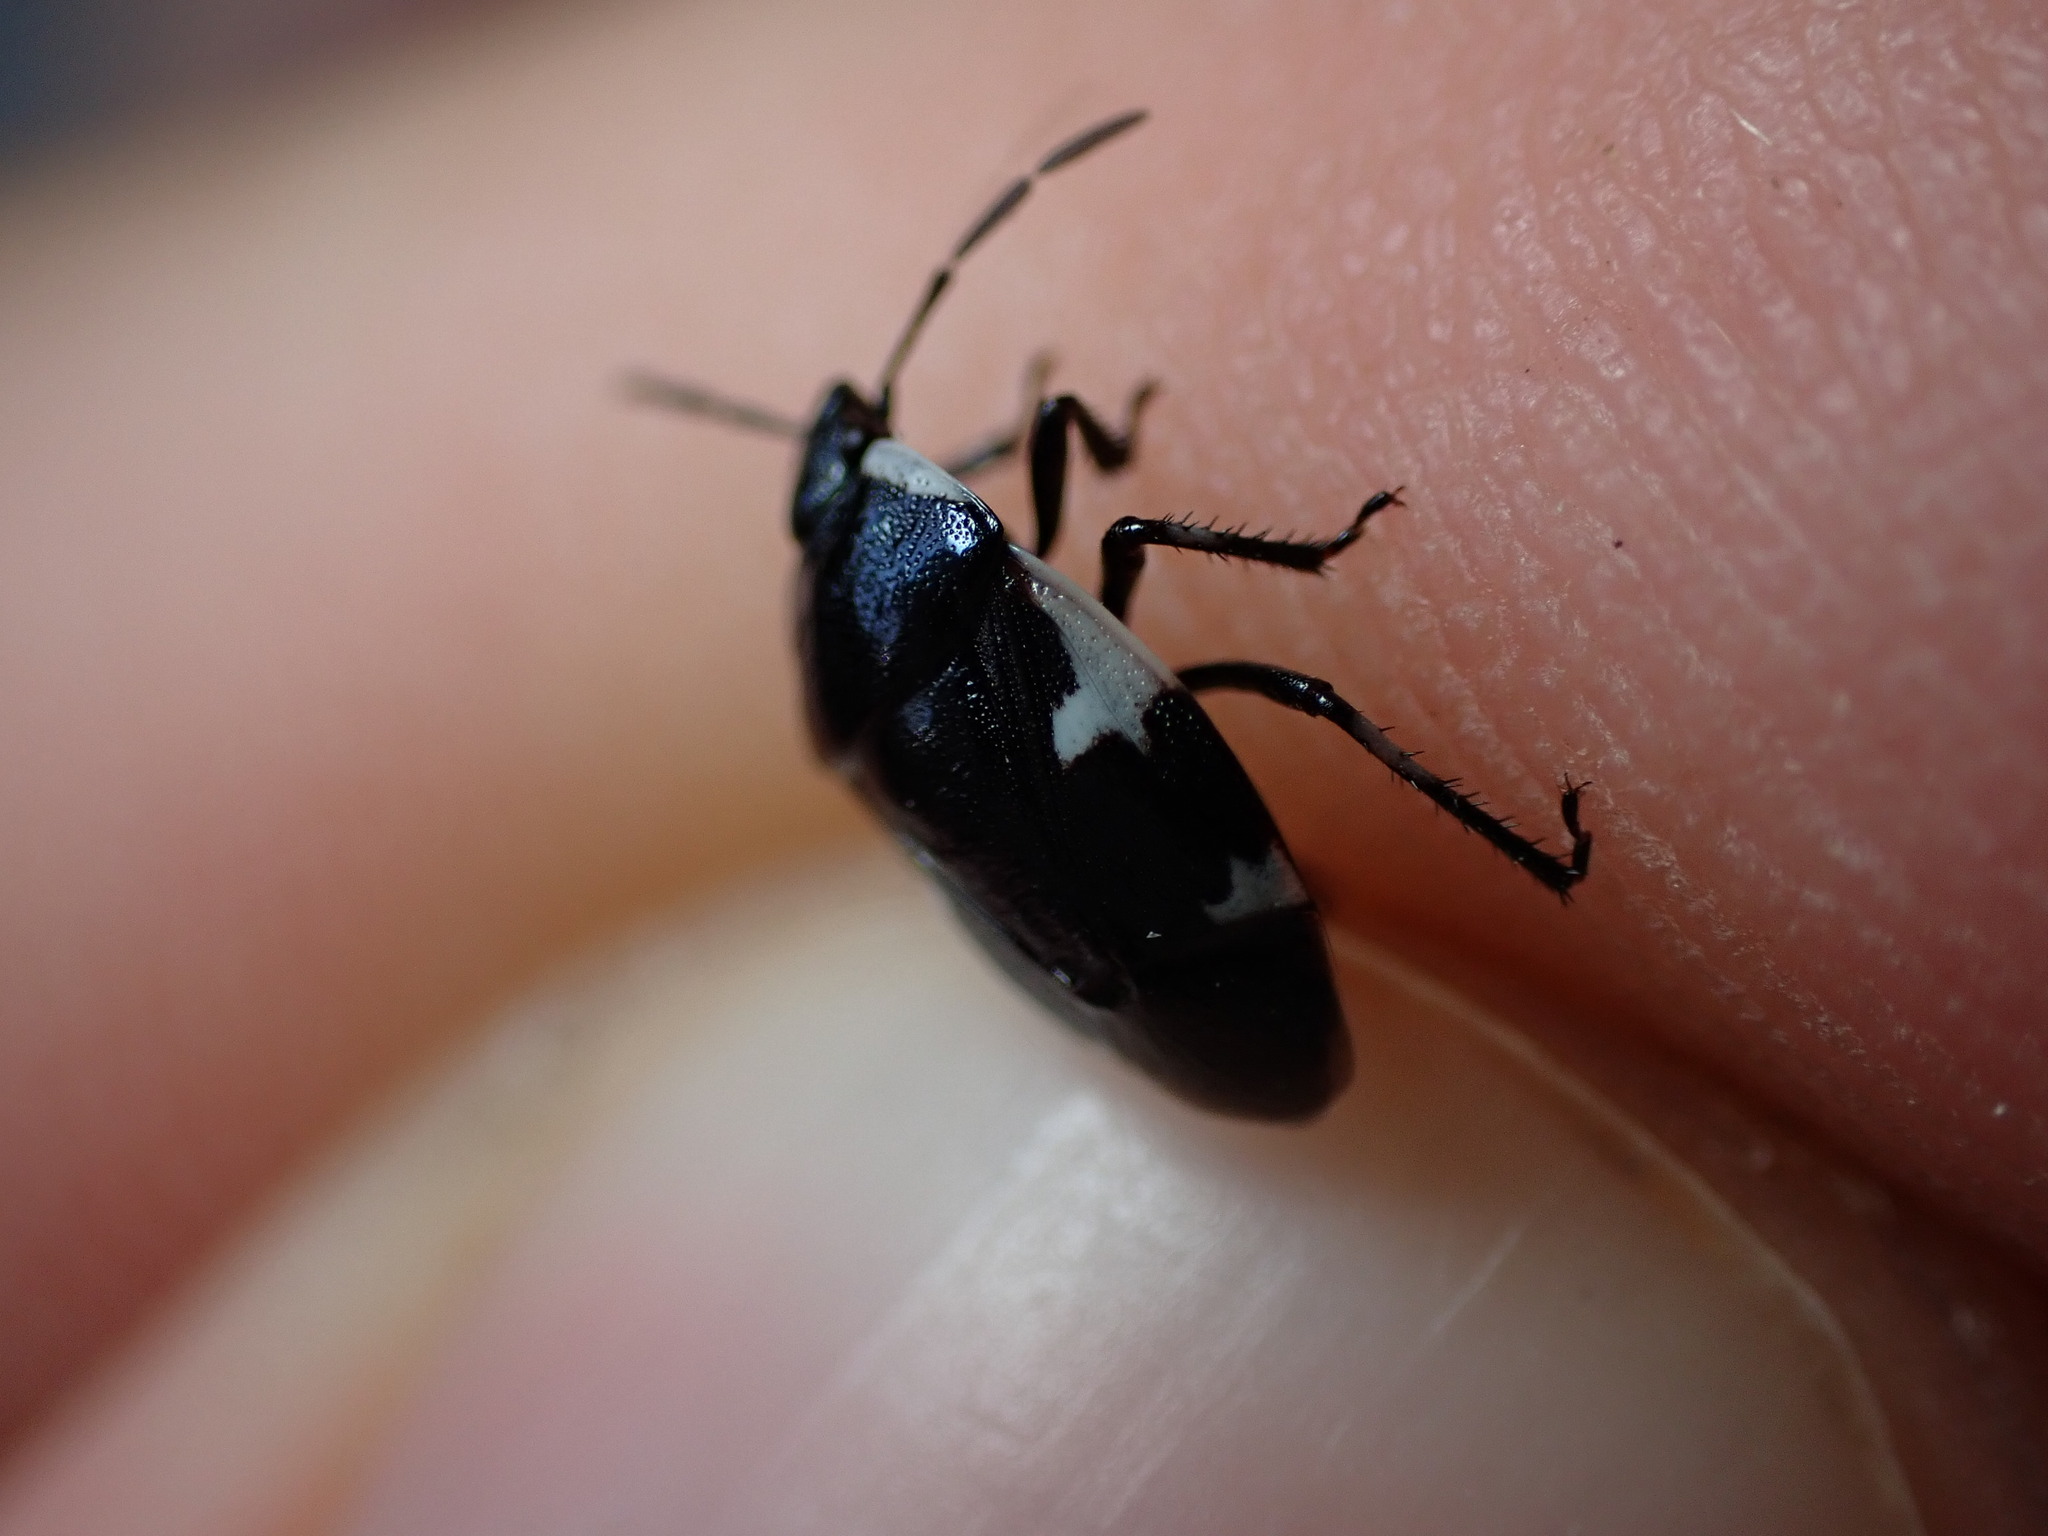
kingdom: Animalia
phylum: Arthropoda
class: Insecta
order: Hemiptera
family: Cydnidae
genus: Tritomegas
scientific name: Tritomegas sexmaculatus
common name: Rambur's pied shieldbug
